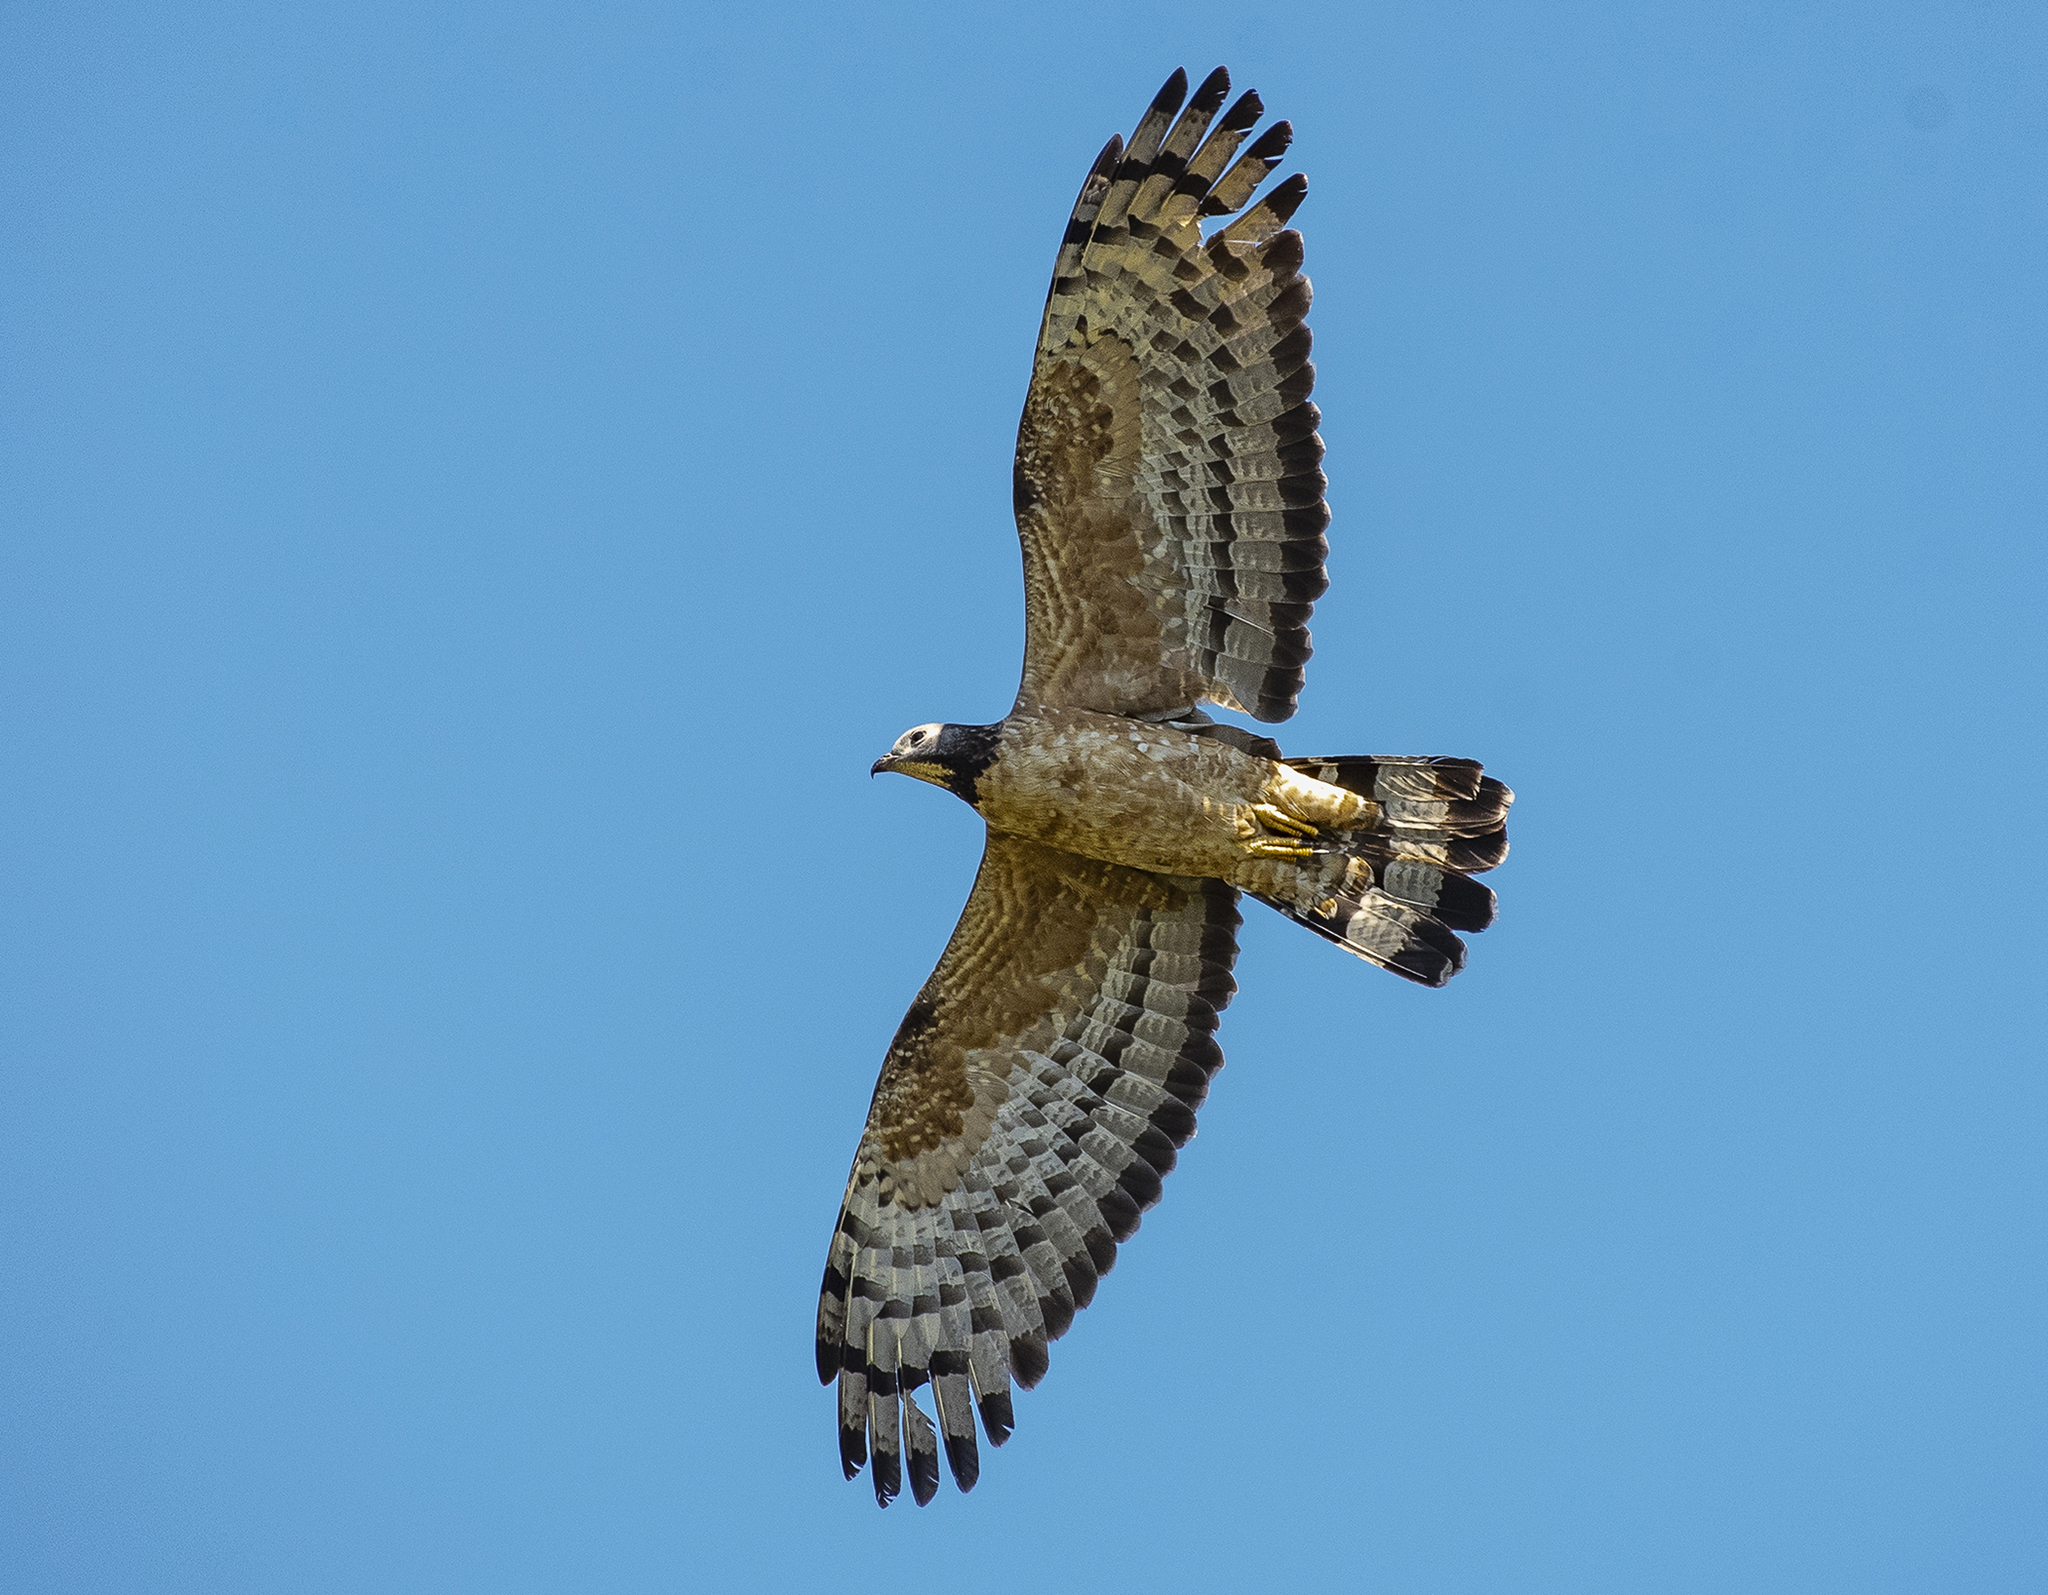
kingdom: Animalia
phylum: Chordata
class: Aves
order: Accipitriformes
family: Accipitridae
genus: Pernis
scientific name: Pernis ptilorhynchus
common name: Crested honey buzzard
